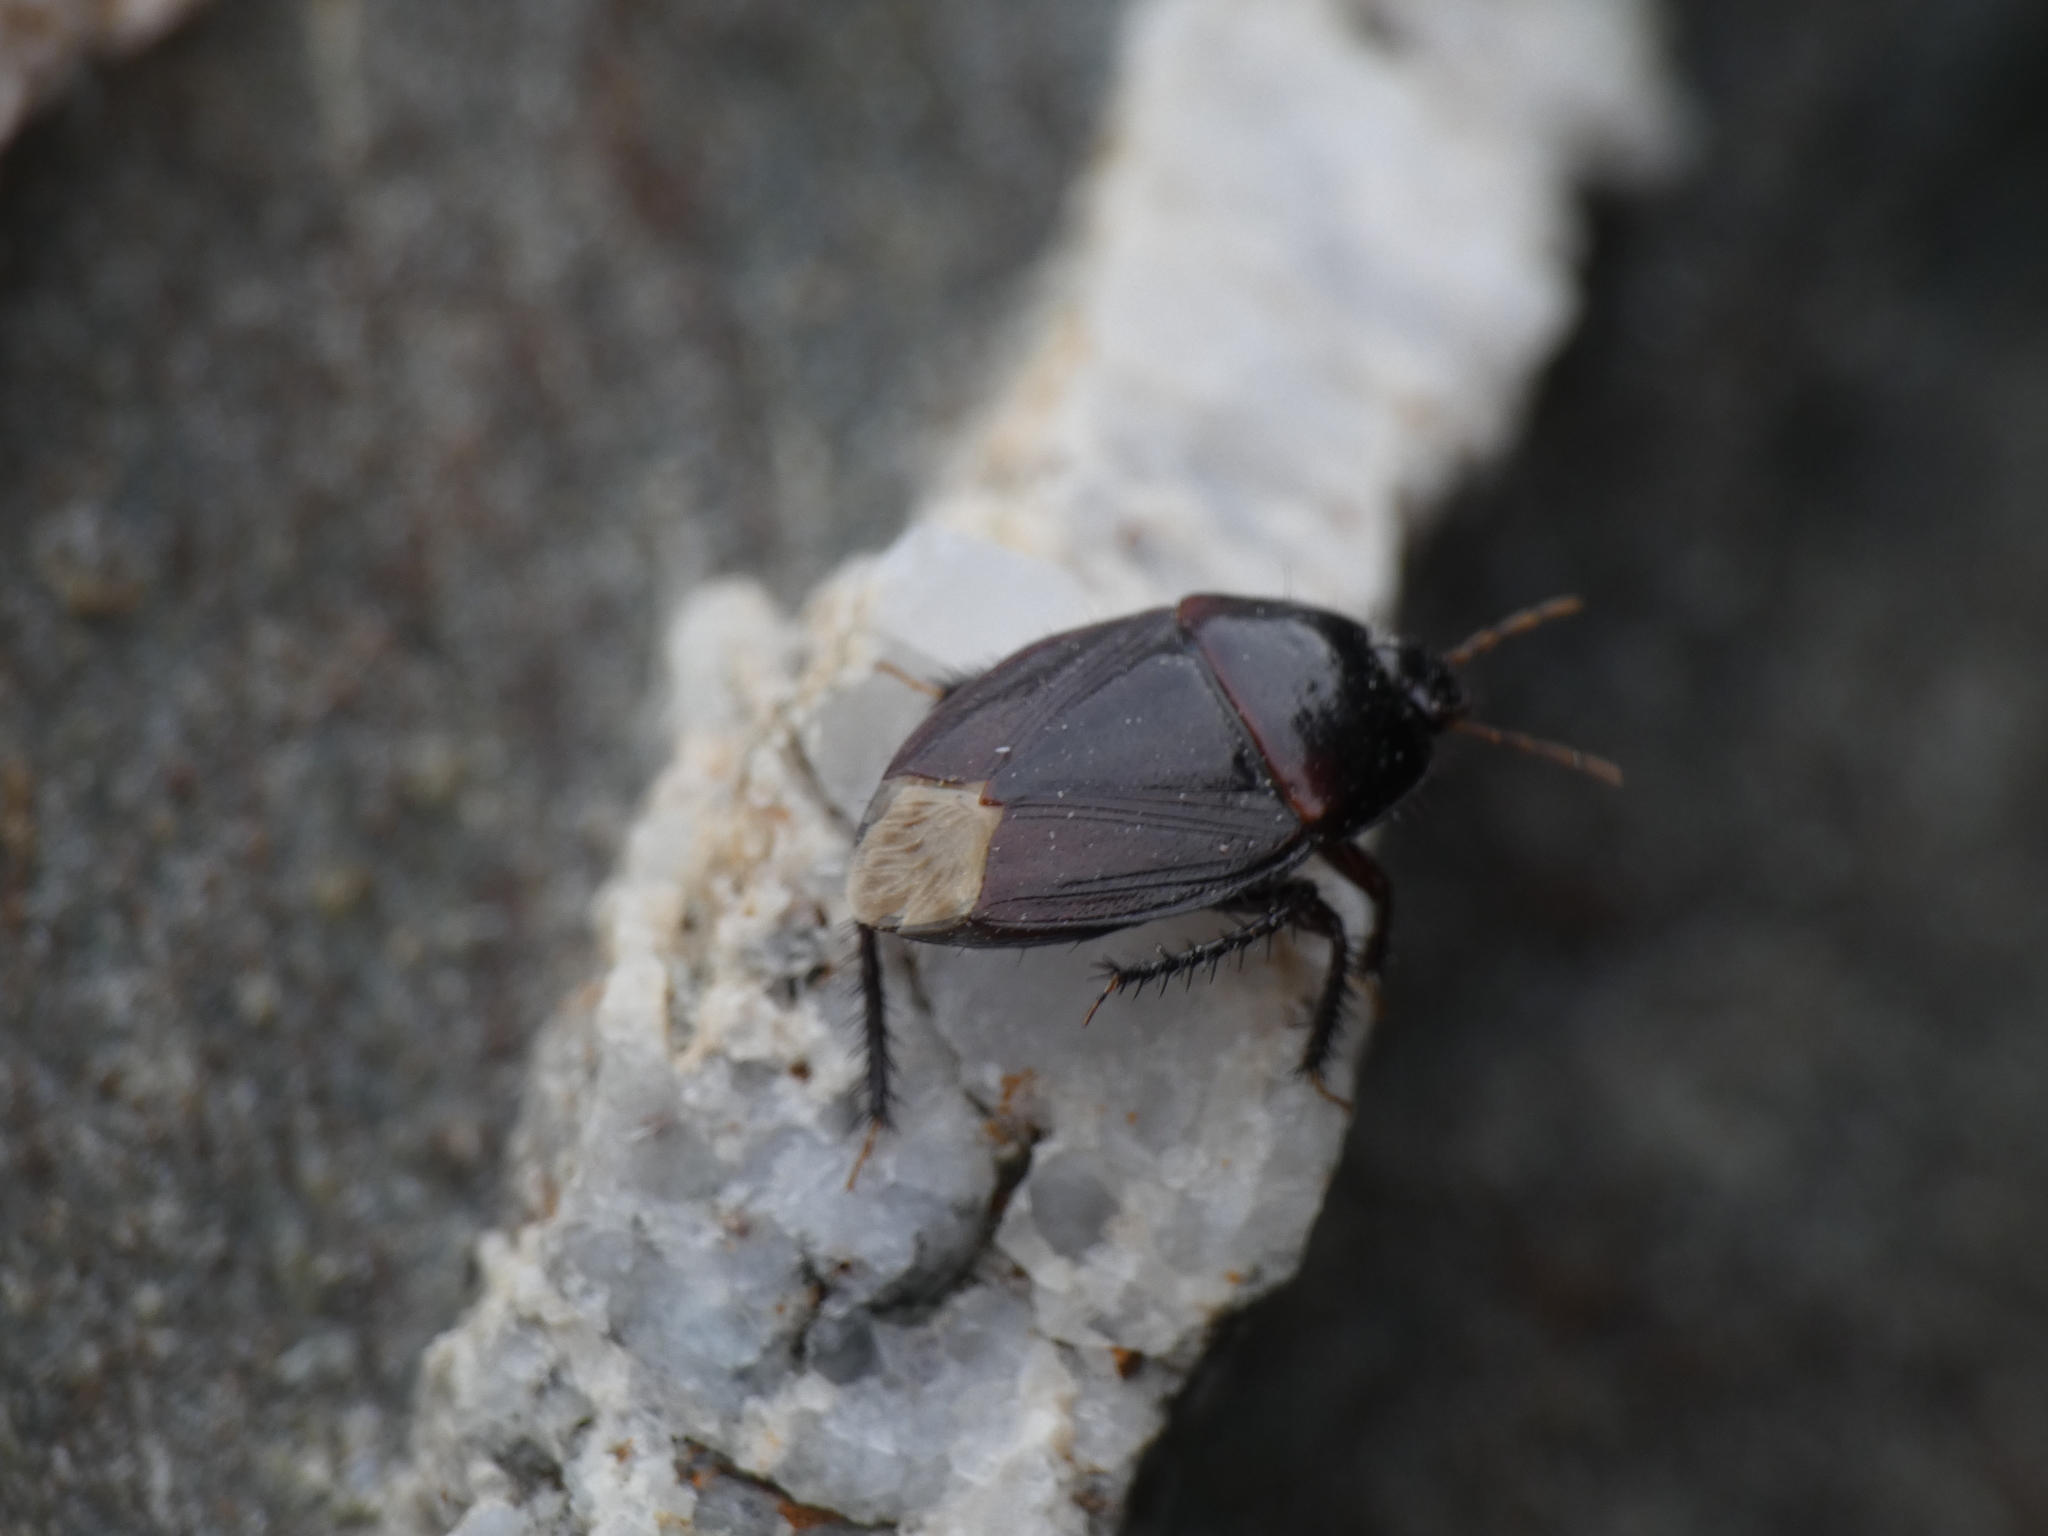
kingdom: Animalia
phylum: Arthropoda
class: Insecta
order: Hemiptera
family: Cydnidae
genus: Macroscytus
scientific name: Macroscytus brunneus
